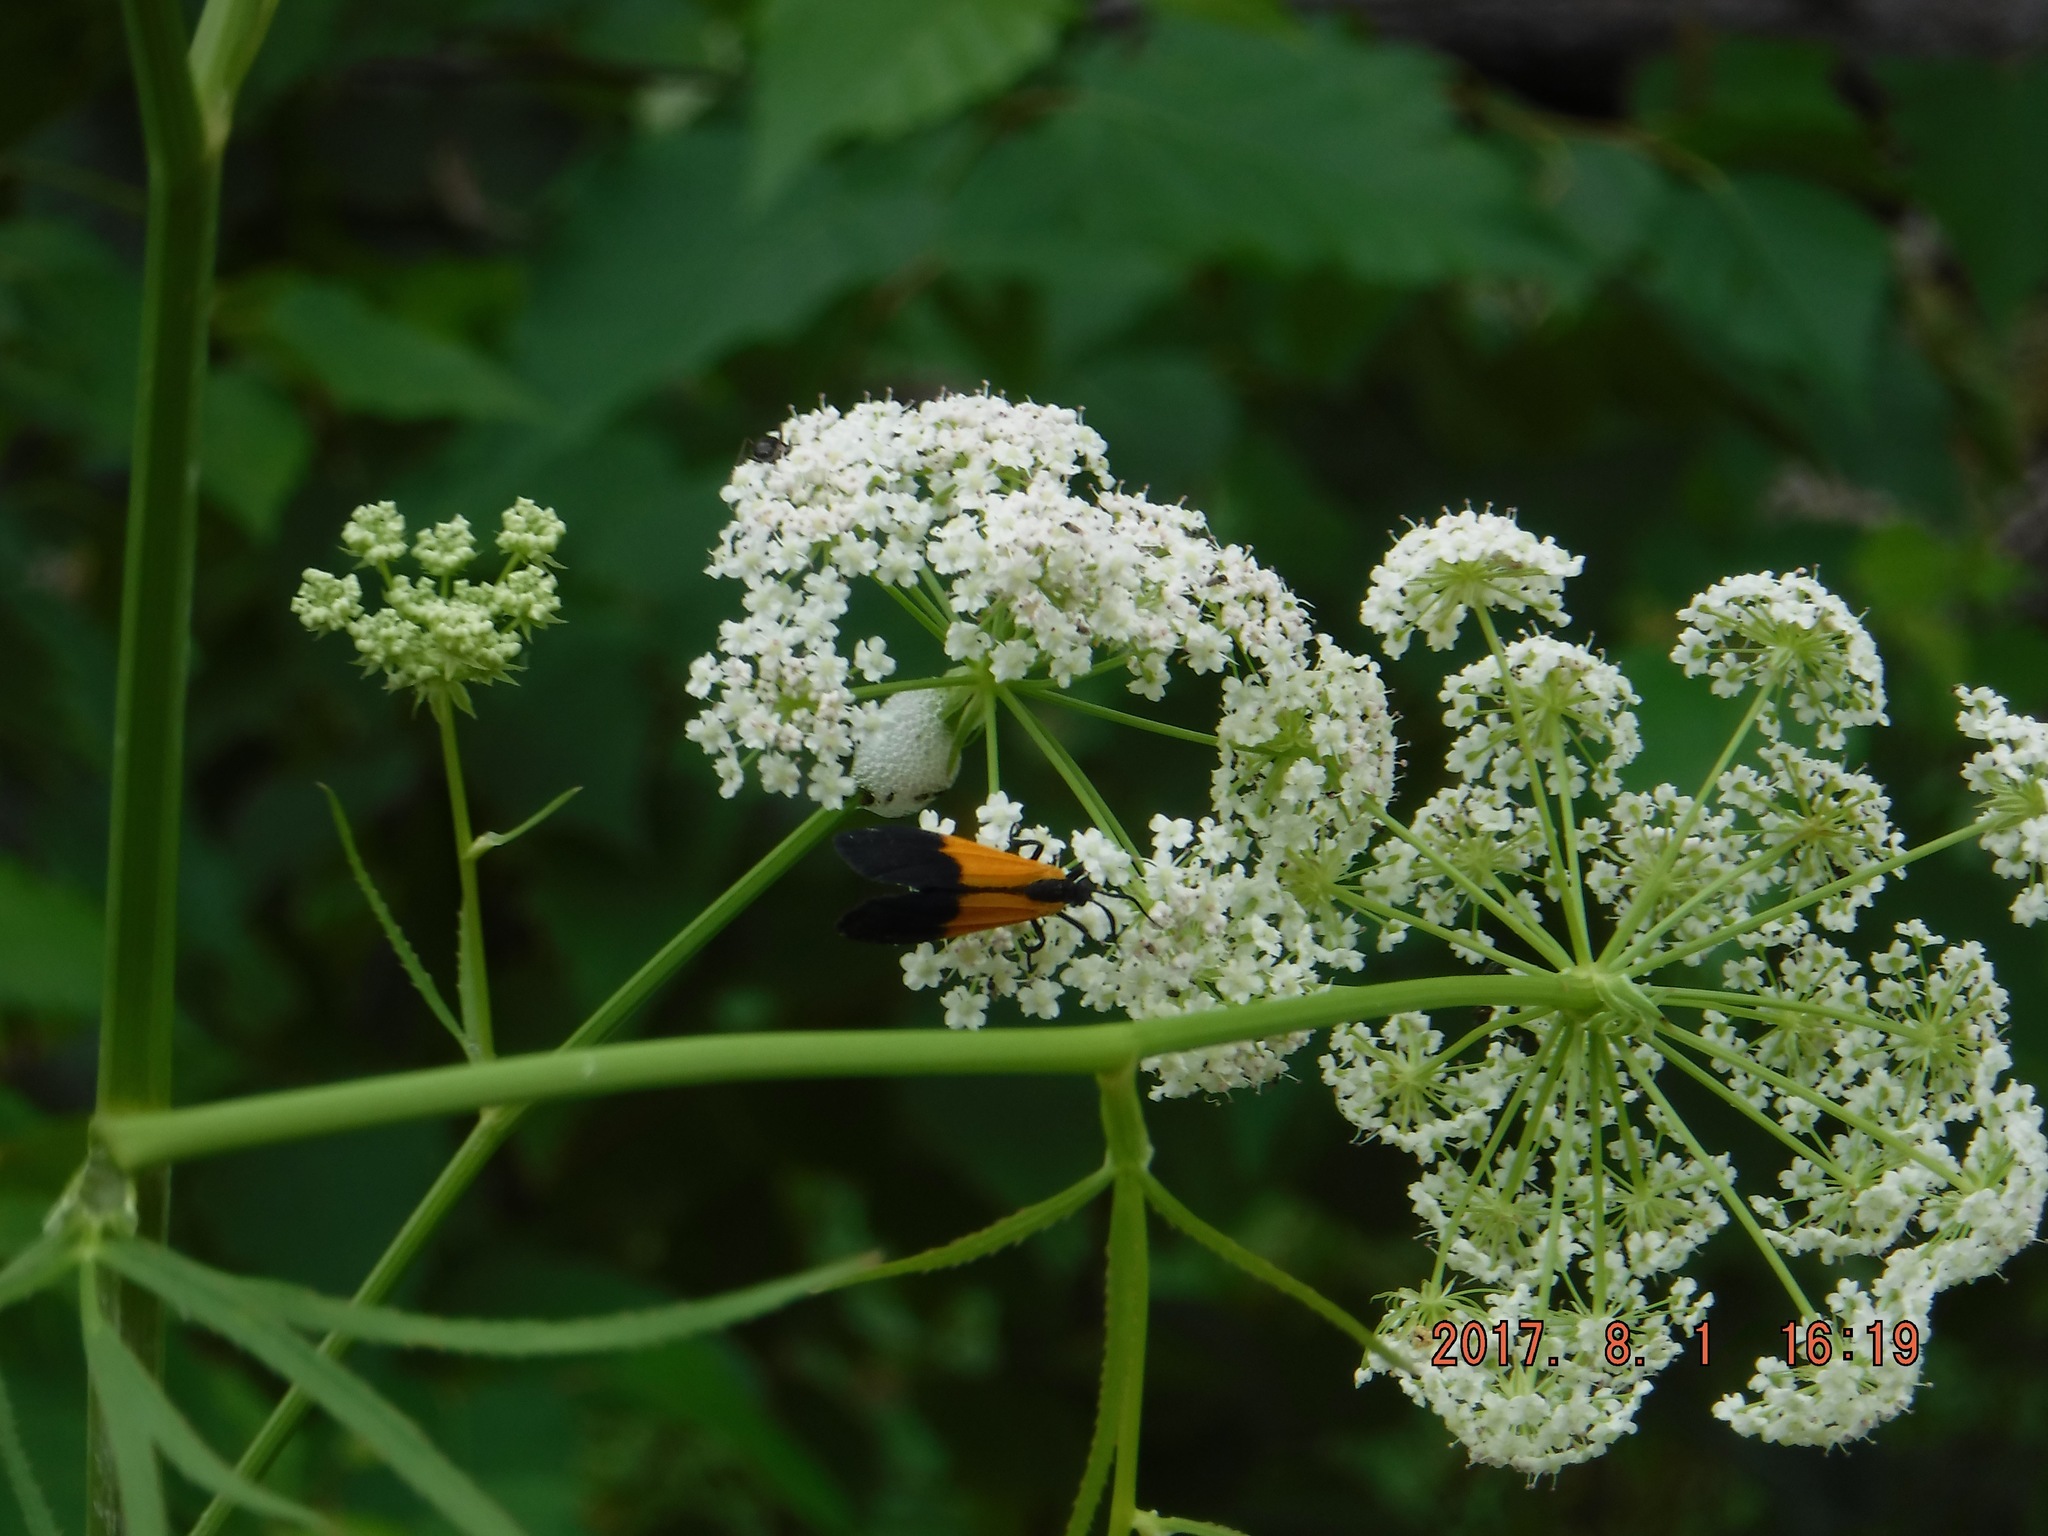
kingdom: Animalia
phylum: Arthropoda
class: Insecta
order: Lepidoptera
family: Erebidae
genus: Lycomorpha
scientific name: Lycomorpha pholus
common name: Black-and-yellow lichen moth
